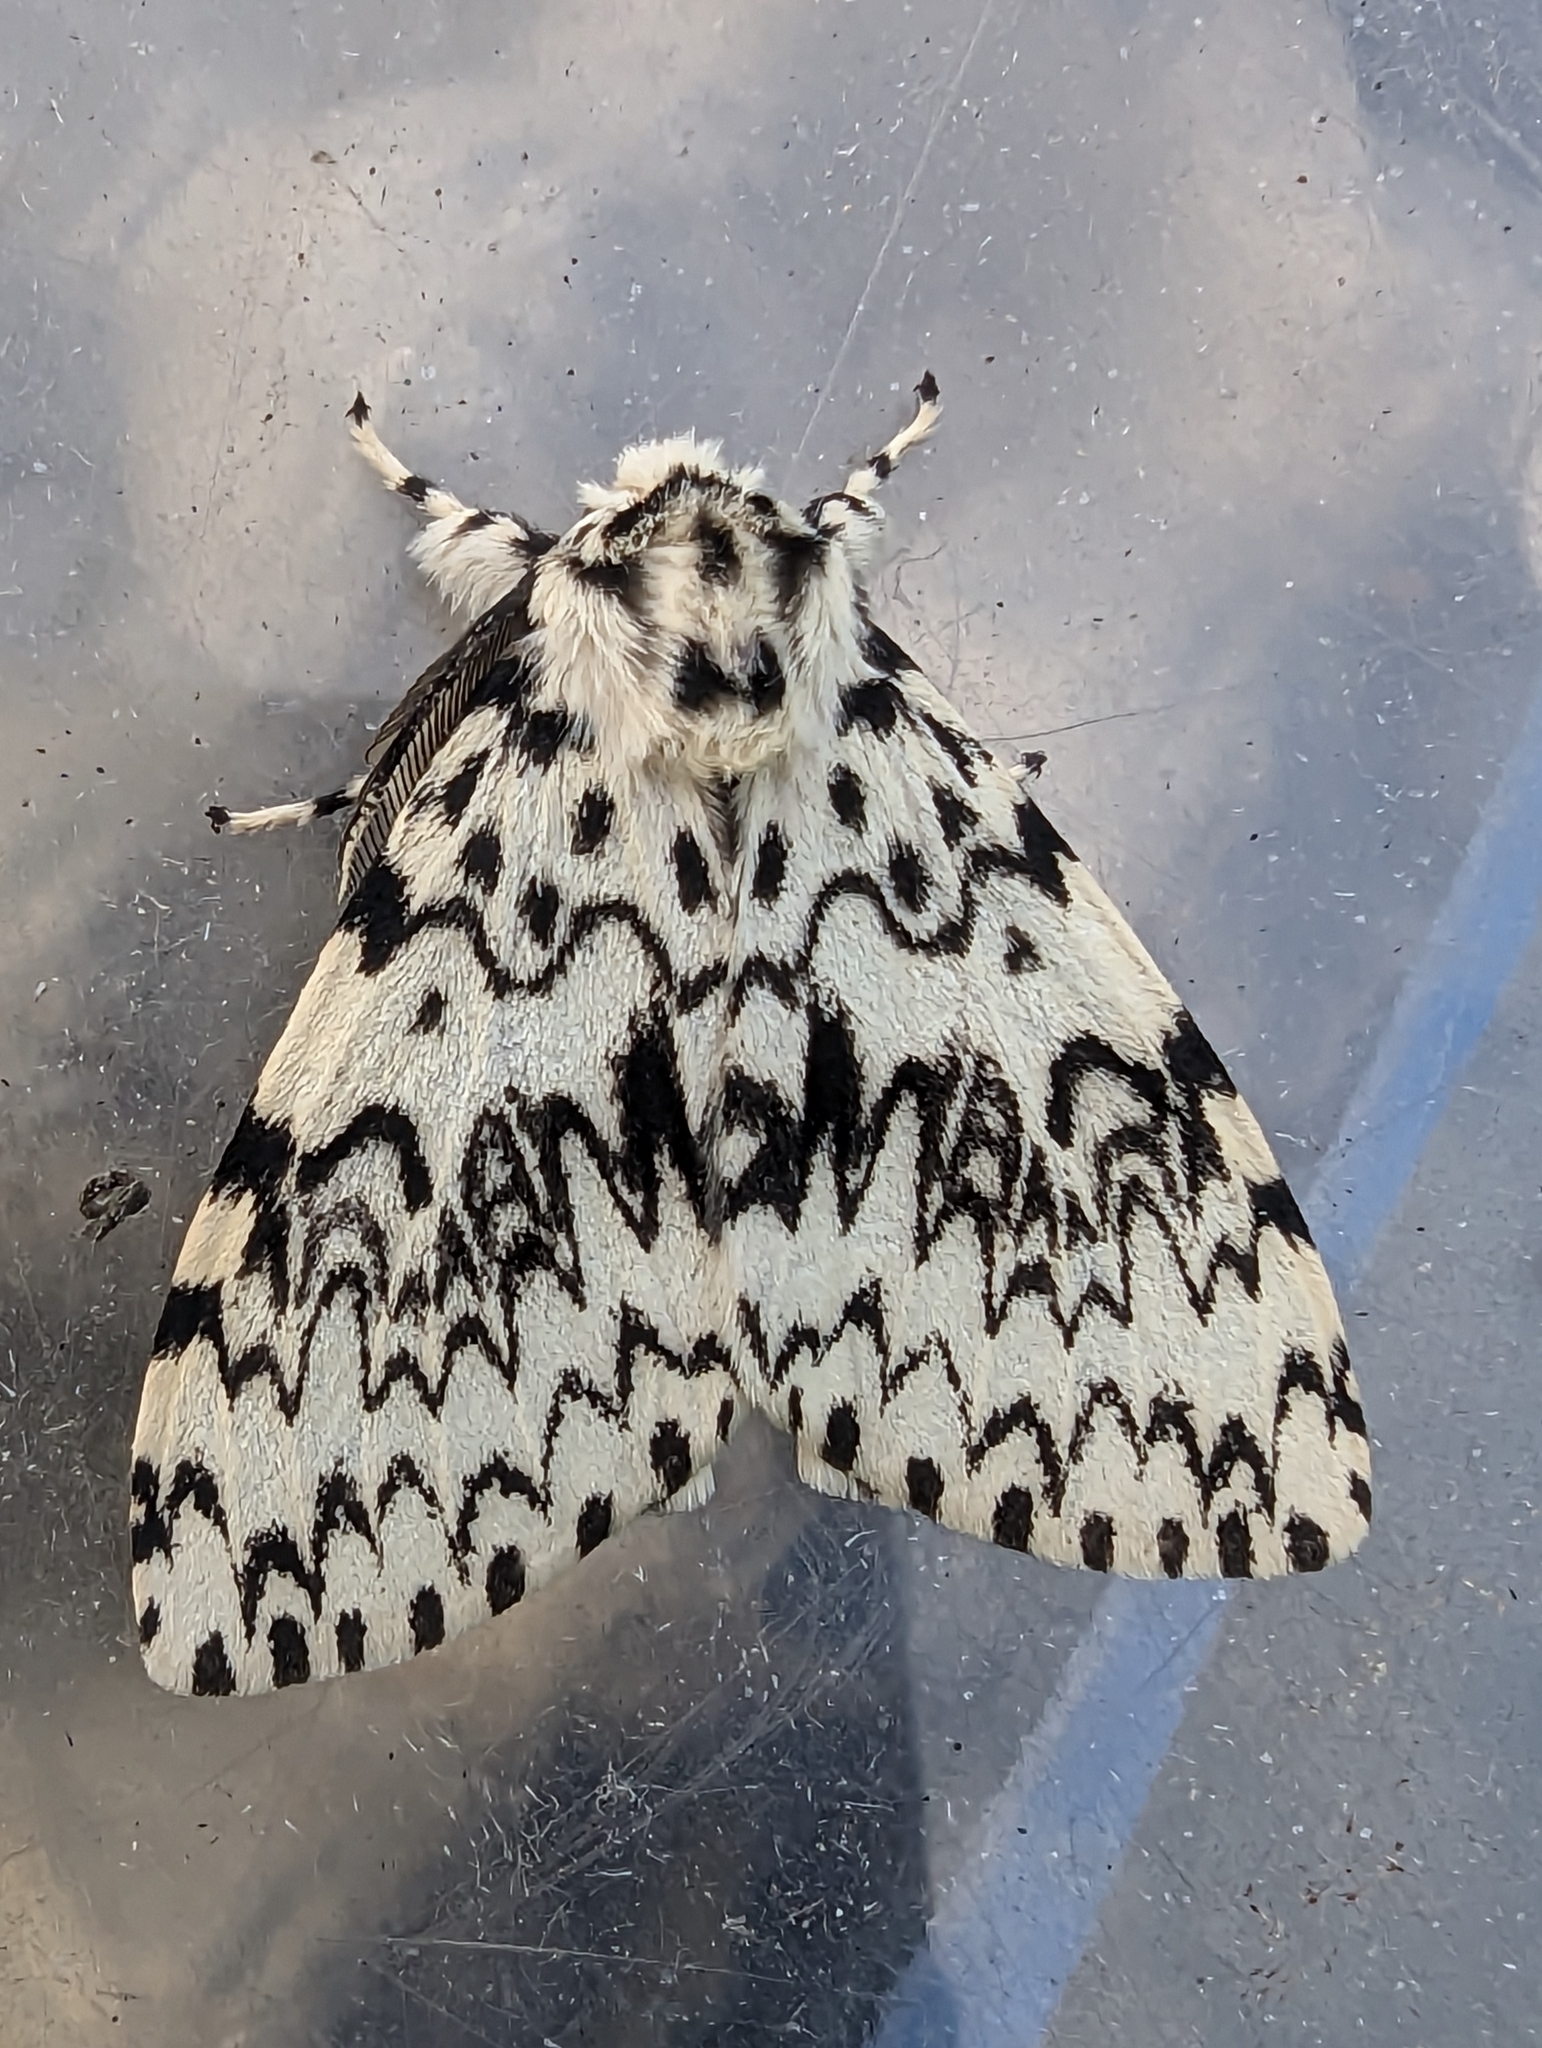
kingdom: Animalia
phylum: Arthropoda
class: Insecta
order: Lepidoptera
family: Erebidae
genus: Lymantria
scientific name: Lymantria monacha
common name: Black arches
